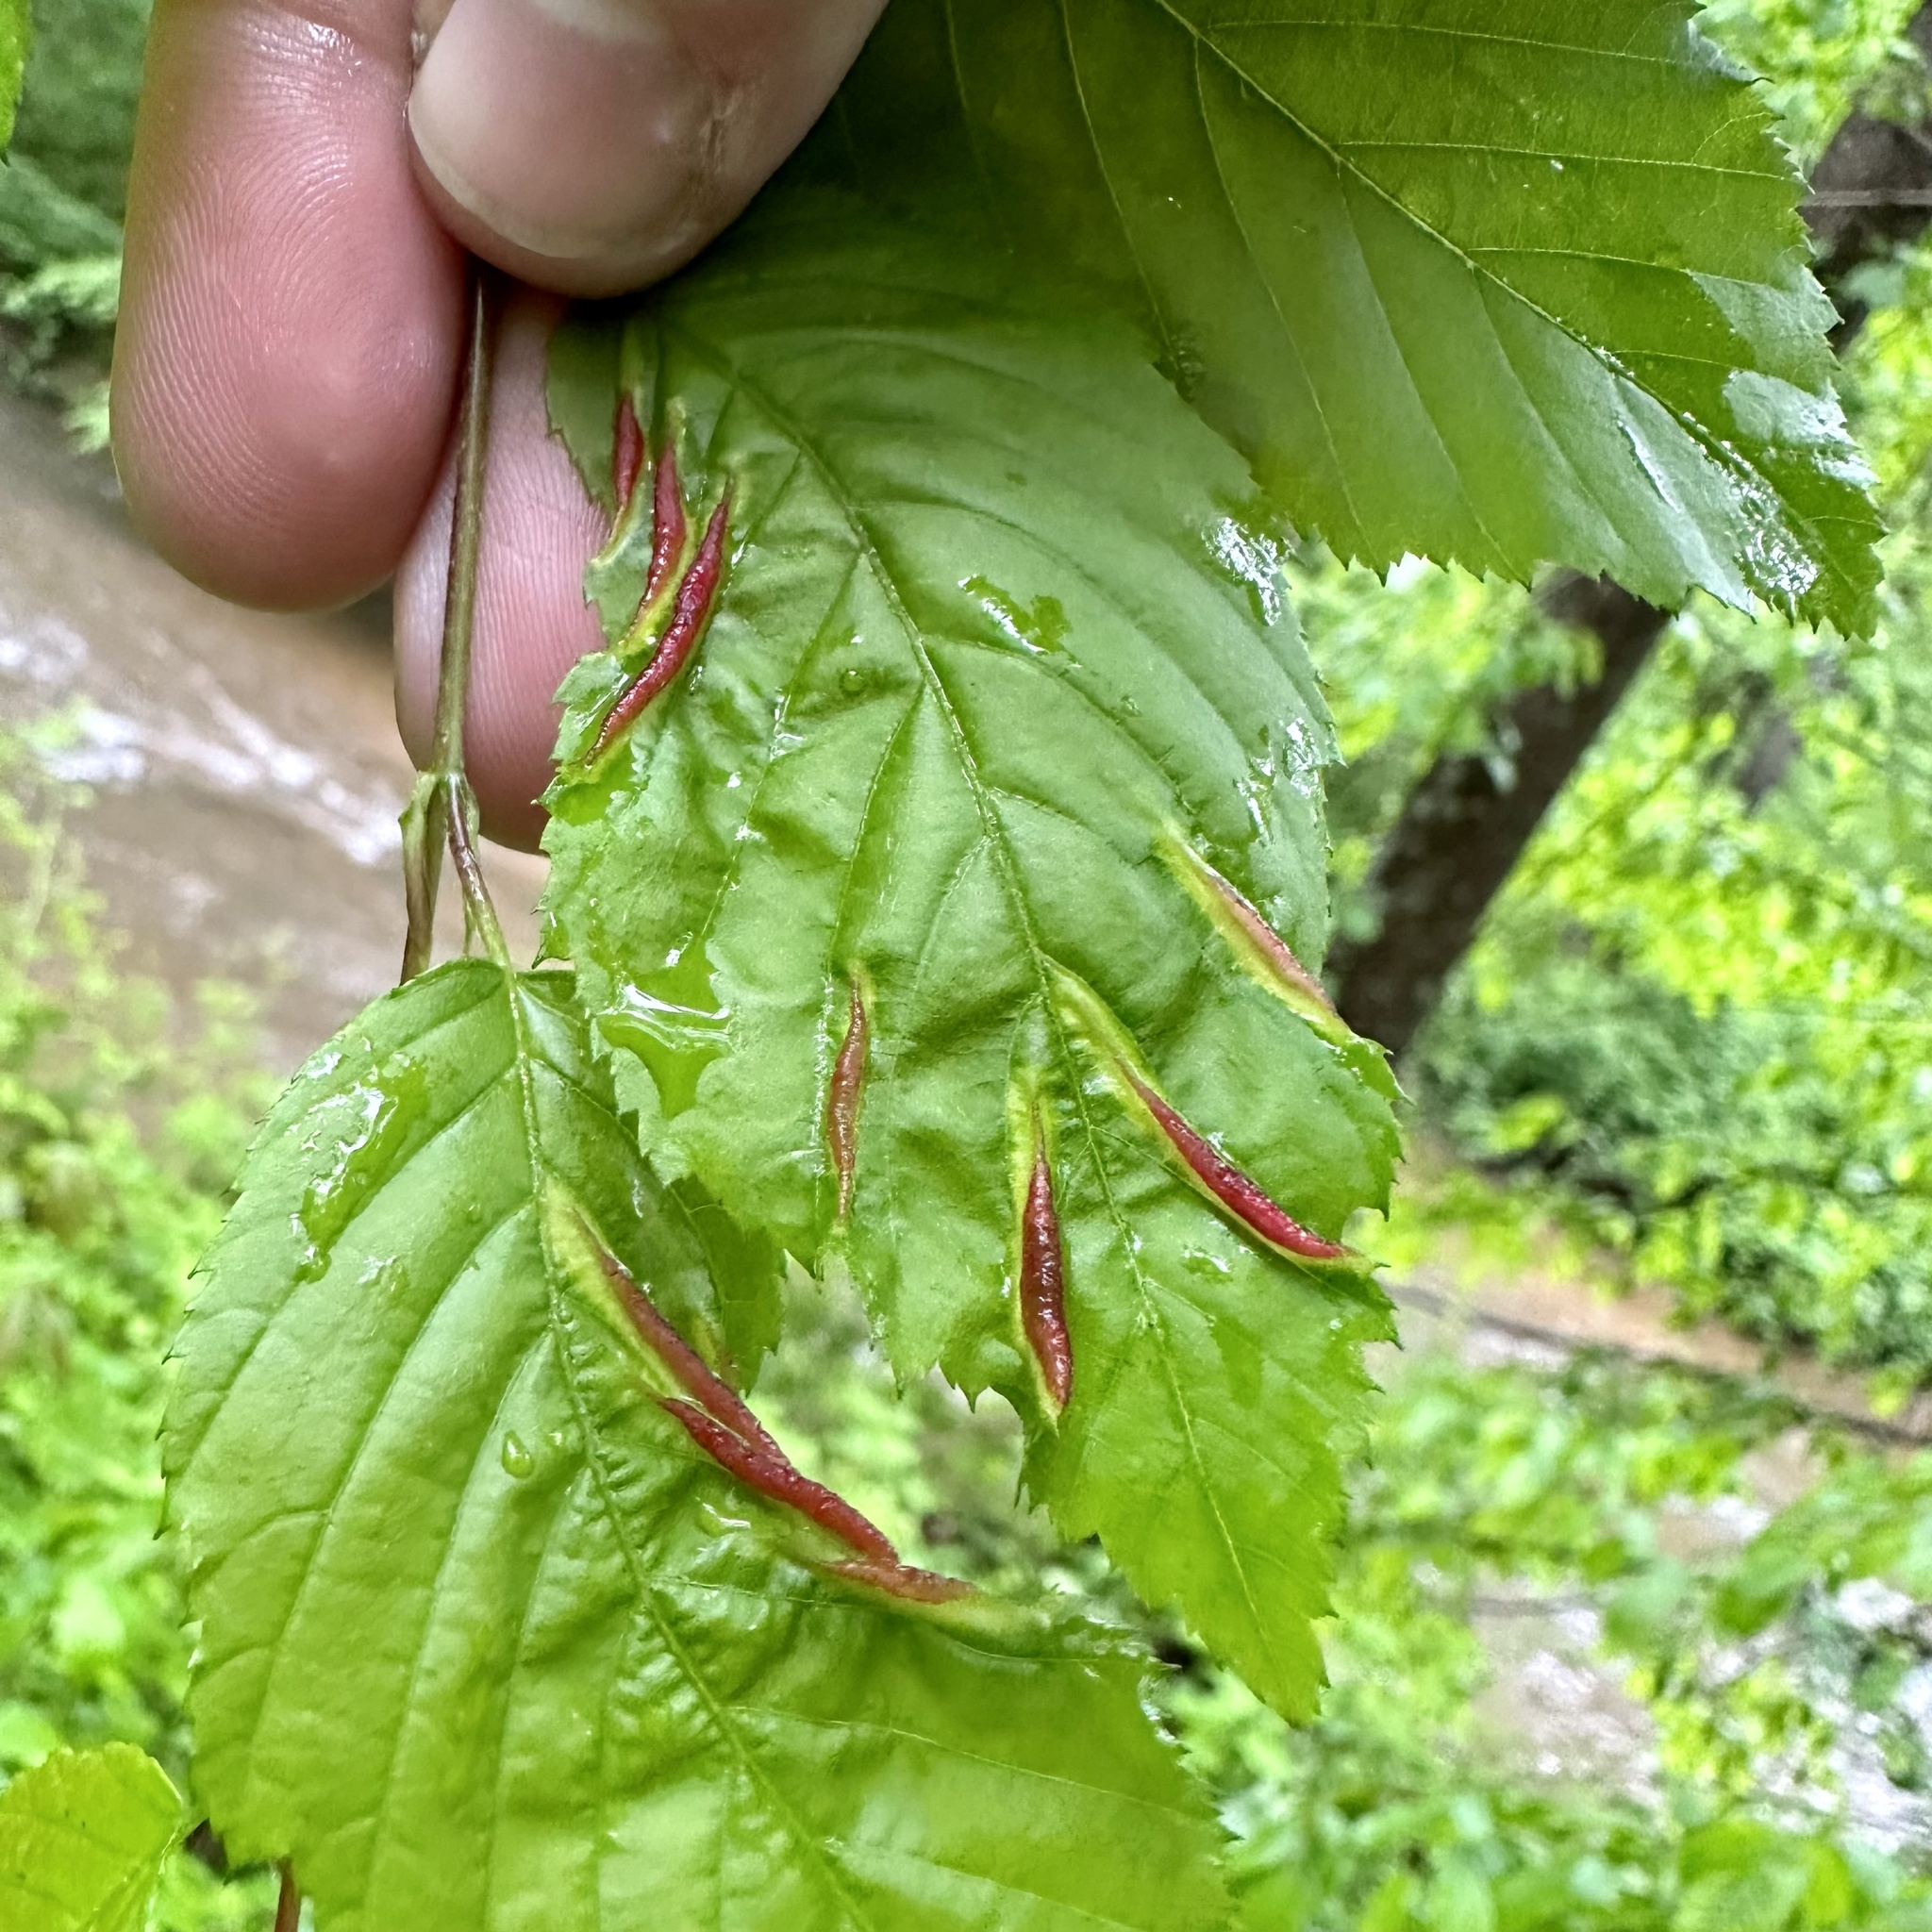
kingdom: Animalia
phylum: Arthropoda
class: Insecta
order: Diptera
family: Cecidomyiidae
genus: Dasineura
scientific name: Dasineura pudibunda
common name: Hornbeam leaf gall midge
